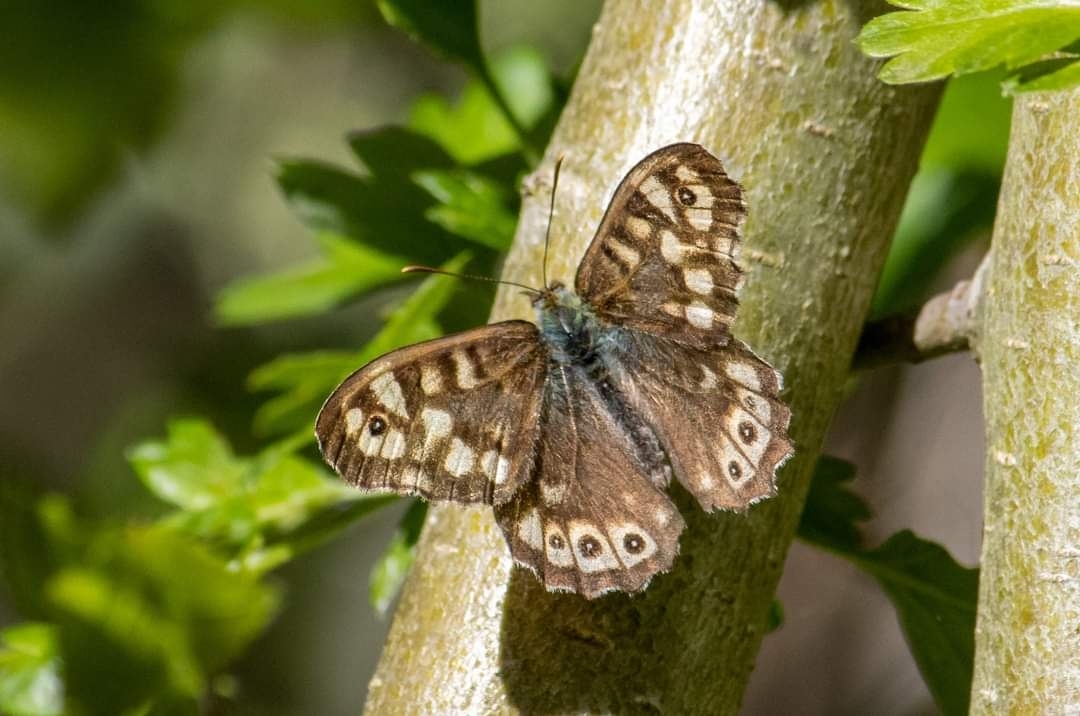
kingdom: Animalia
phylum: Arthropoda
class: Insecta
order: Lepidoptera
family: Nymphalidae
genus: Pararge
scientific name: Pararge aegeria
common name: Speckled wood
